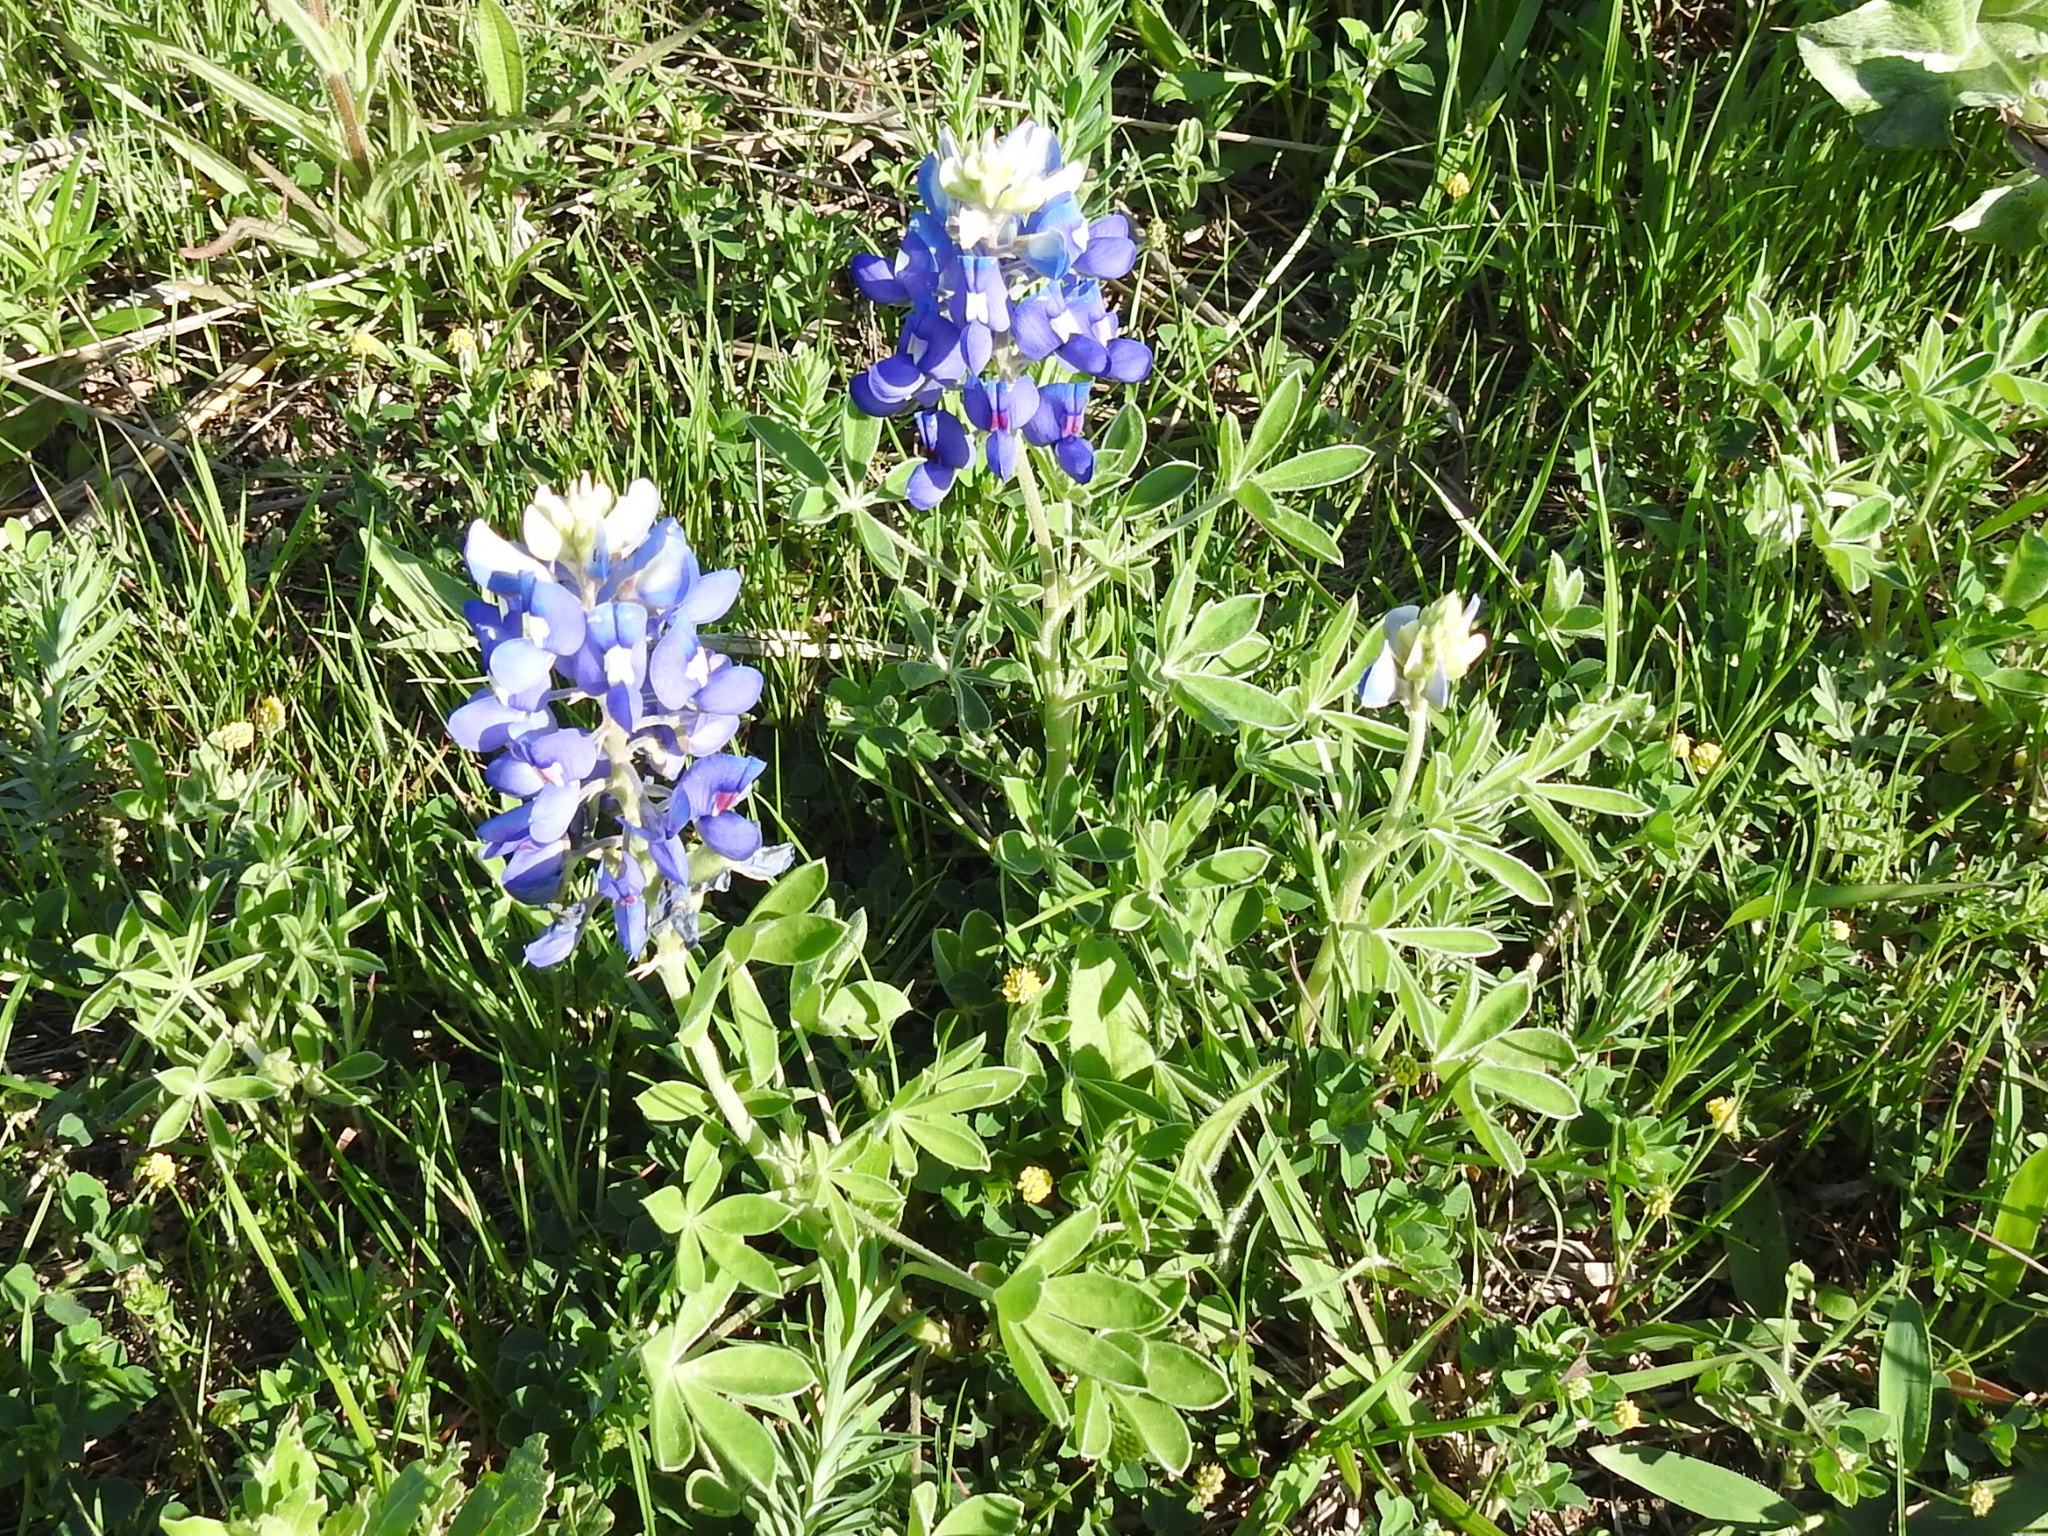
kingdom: Plantae
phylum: Tracheophyta
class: Magnoliopsida
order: Fabales
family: Fabaceae
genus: Lupinus
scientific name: Lupinus texensis
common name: Texas bluebonnet
